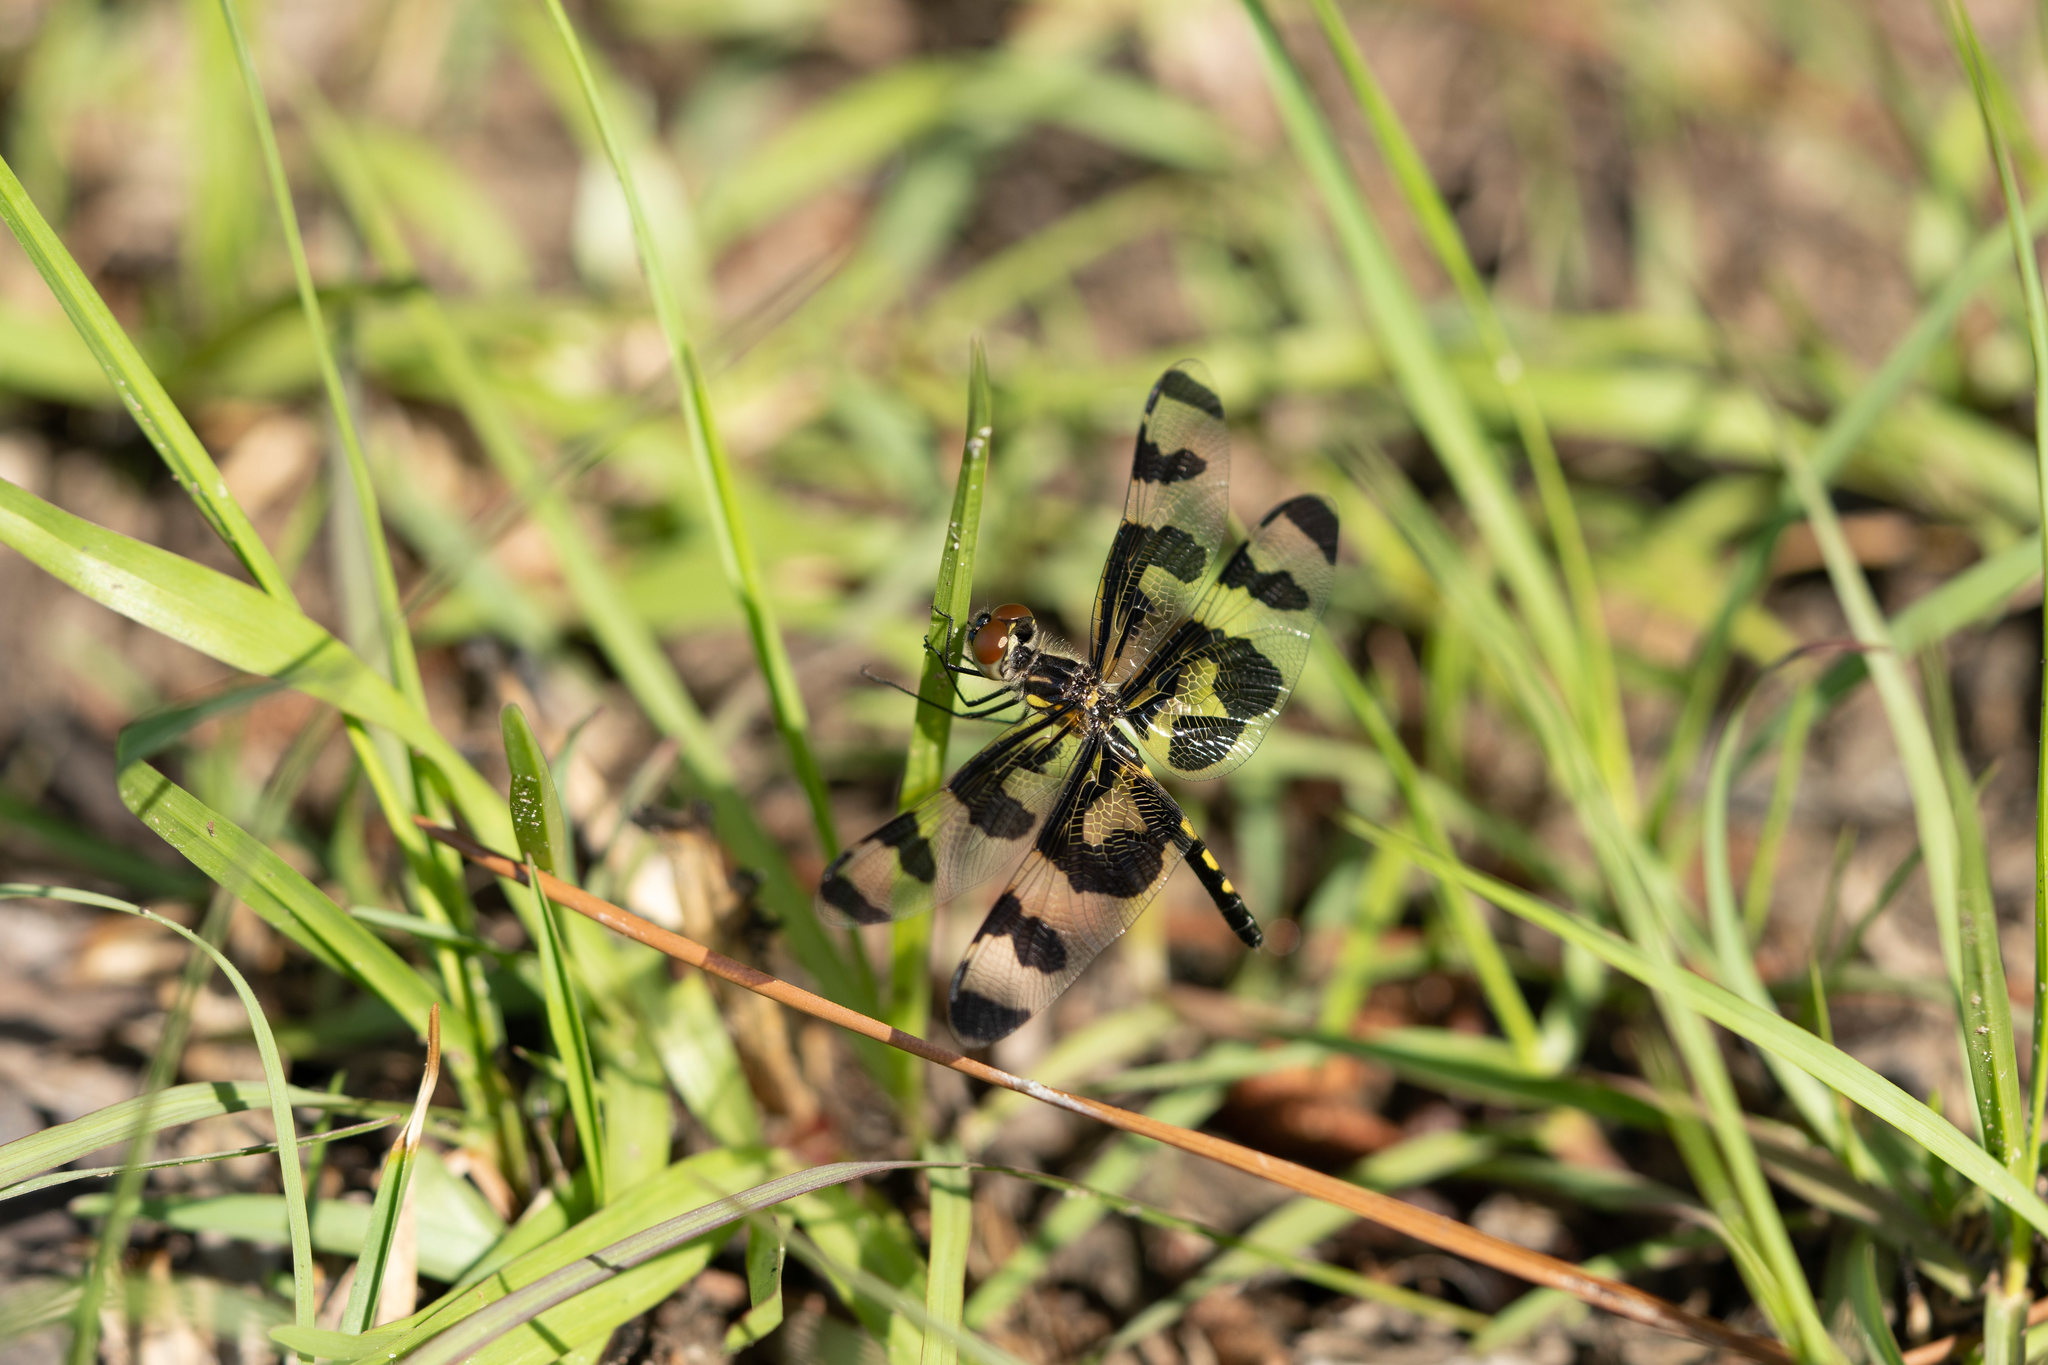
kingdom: Animalia
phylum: Arthropoda
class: Insecta
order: Odonata
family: Libellulidae
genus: Celithemis
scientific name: Celithemis fasciata
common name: Banded pennant
